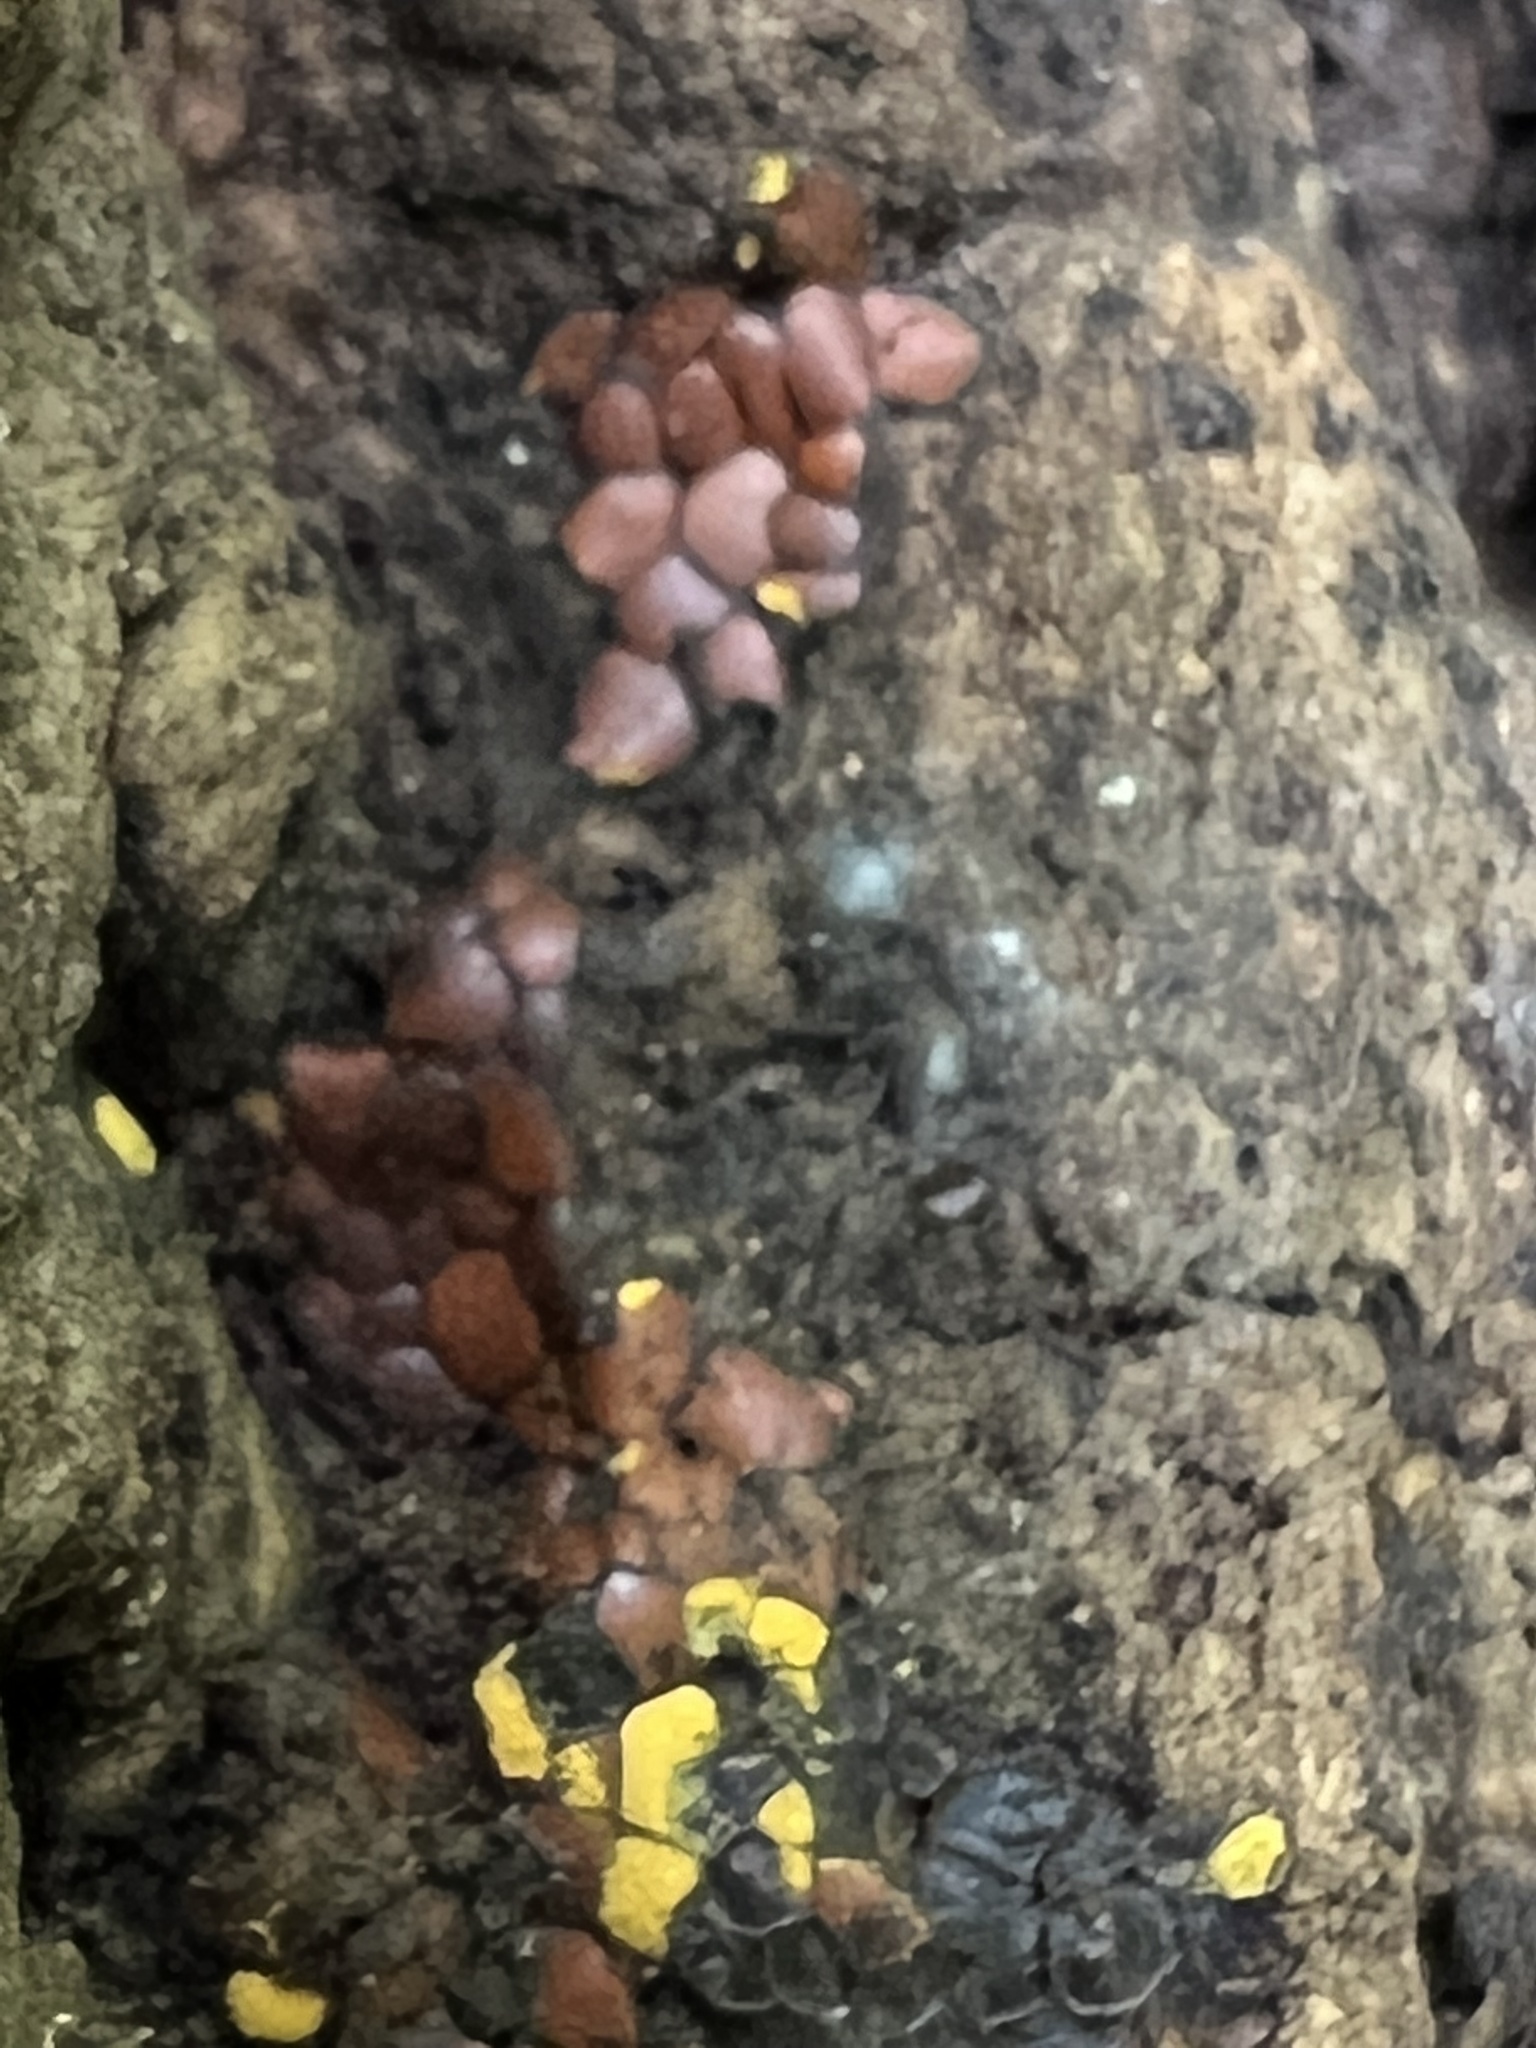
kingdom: Protozoa
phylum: Mycetozoa
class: Myxomycetes
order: Trichiales
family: Trichiaceae
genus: Perichaena
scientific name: Perichaena depressa
